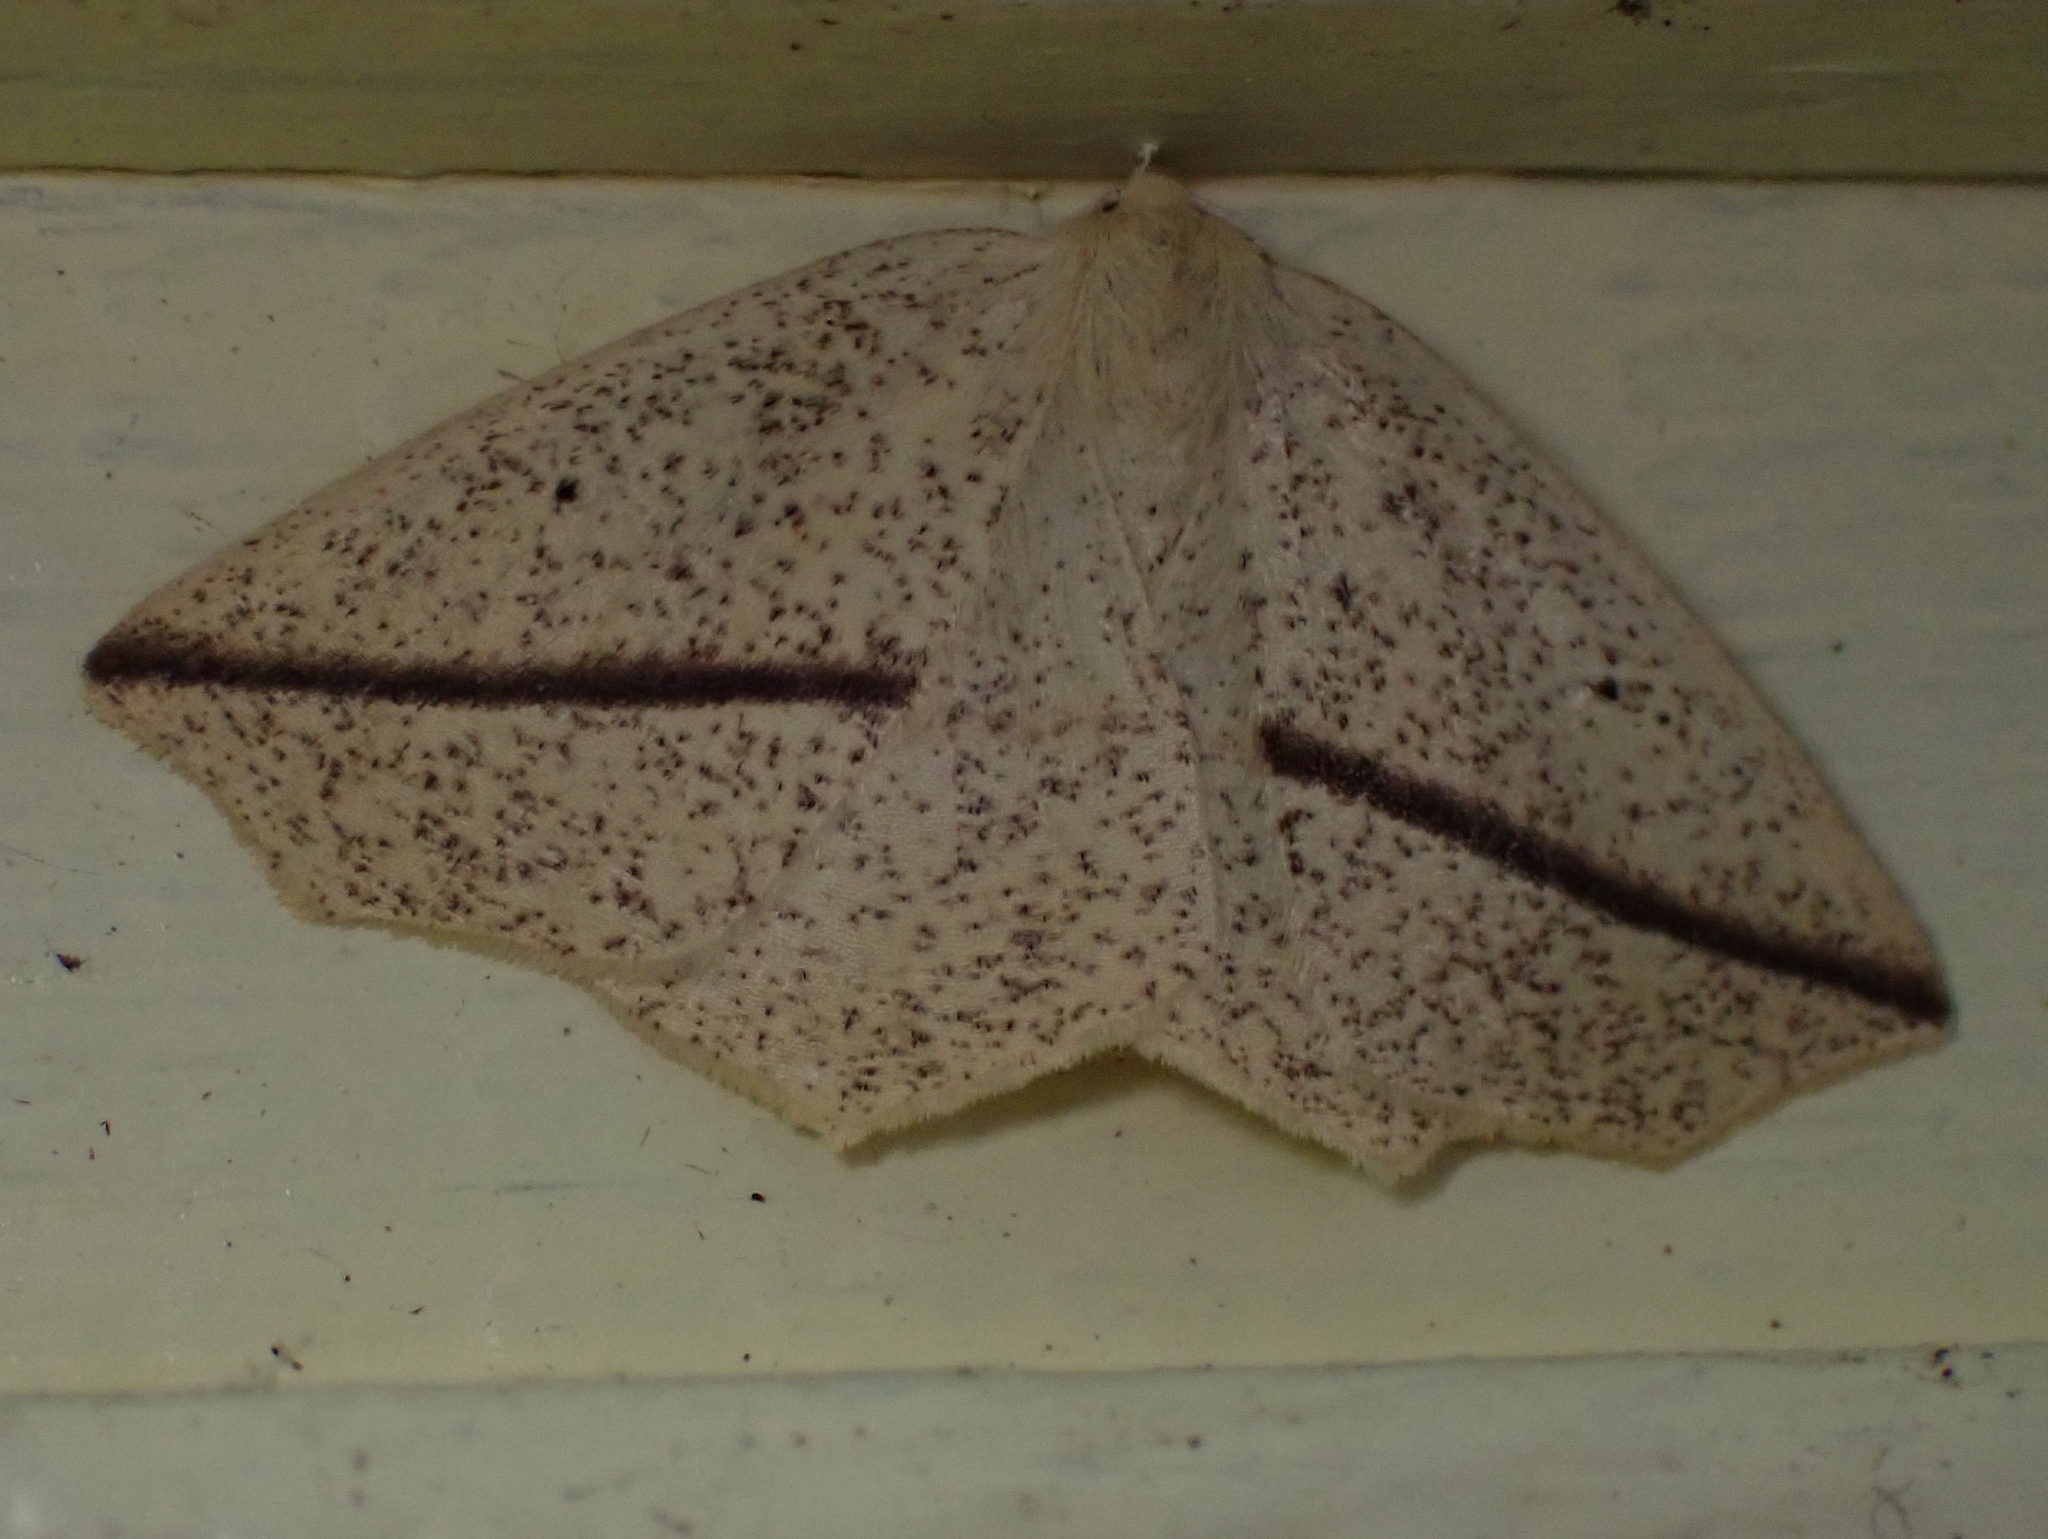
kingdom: Animalia
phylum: Arthropoda
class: Insecta
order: Lepidoptera
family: Geometridae
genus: Tetracis
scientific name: Tetracis crocallata
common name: Yellow slant-line
